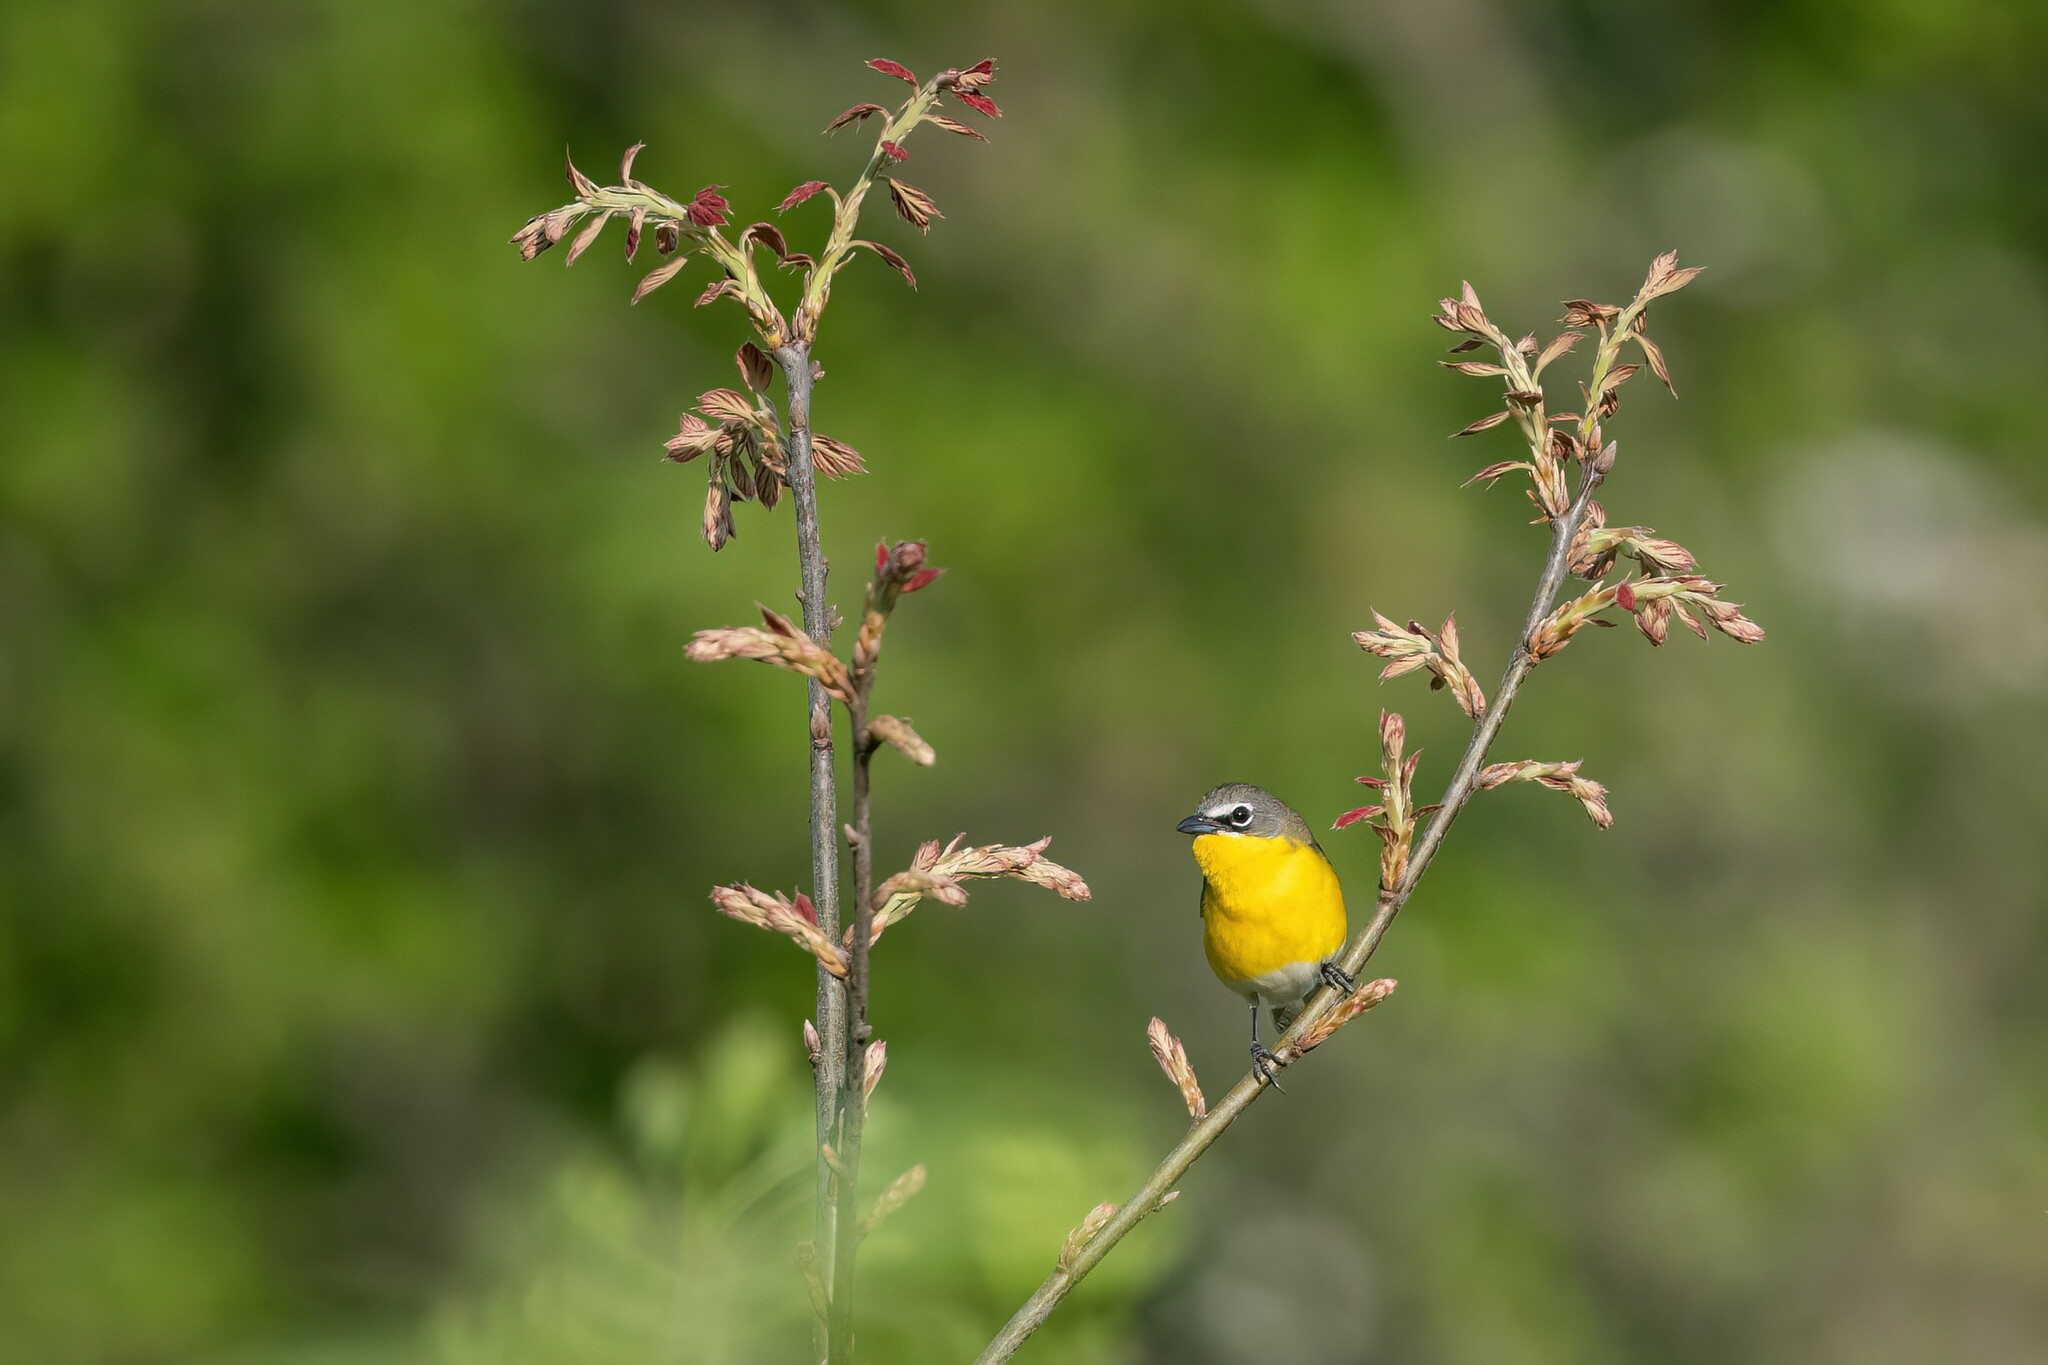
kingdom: Animalia
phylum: Chordata
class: Aves
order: Passeriformes
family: Parulidae
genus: Icteria
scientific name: Icteria virens
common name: Yellow-breasted chat
